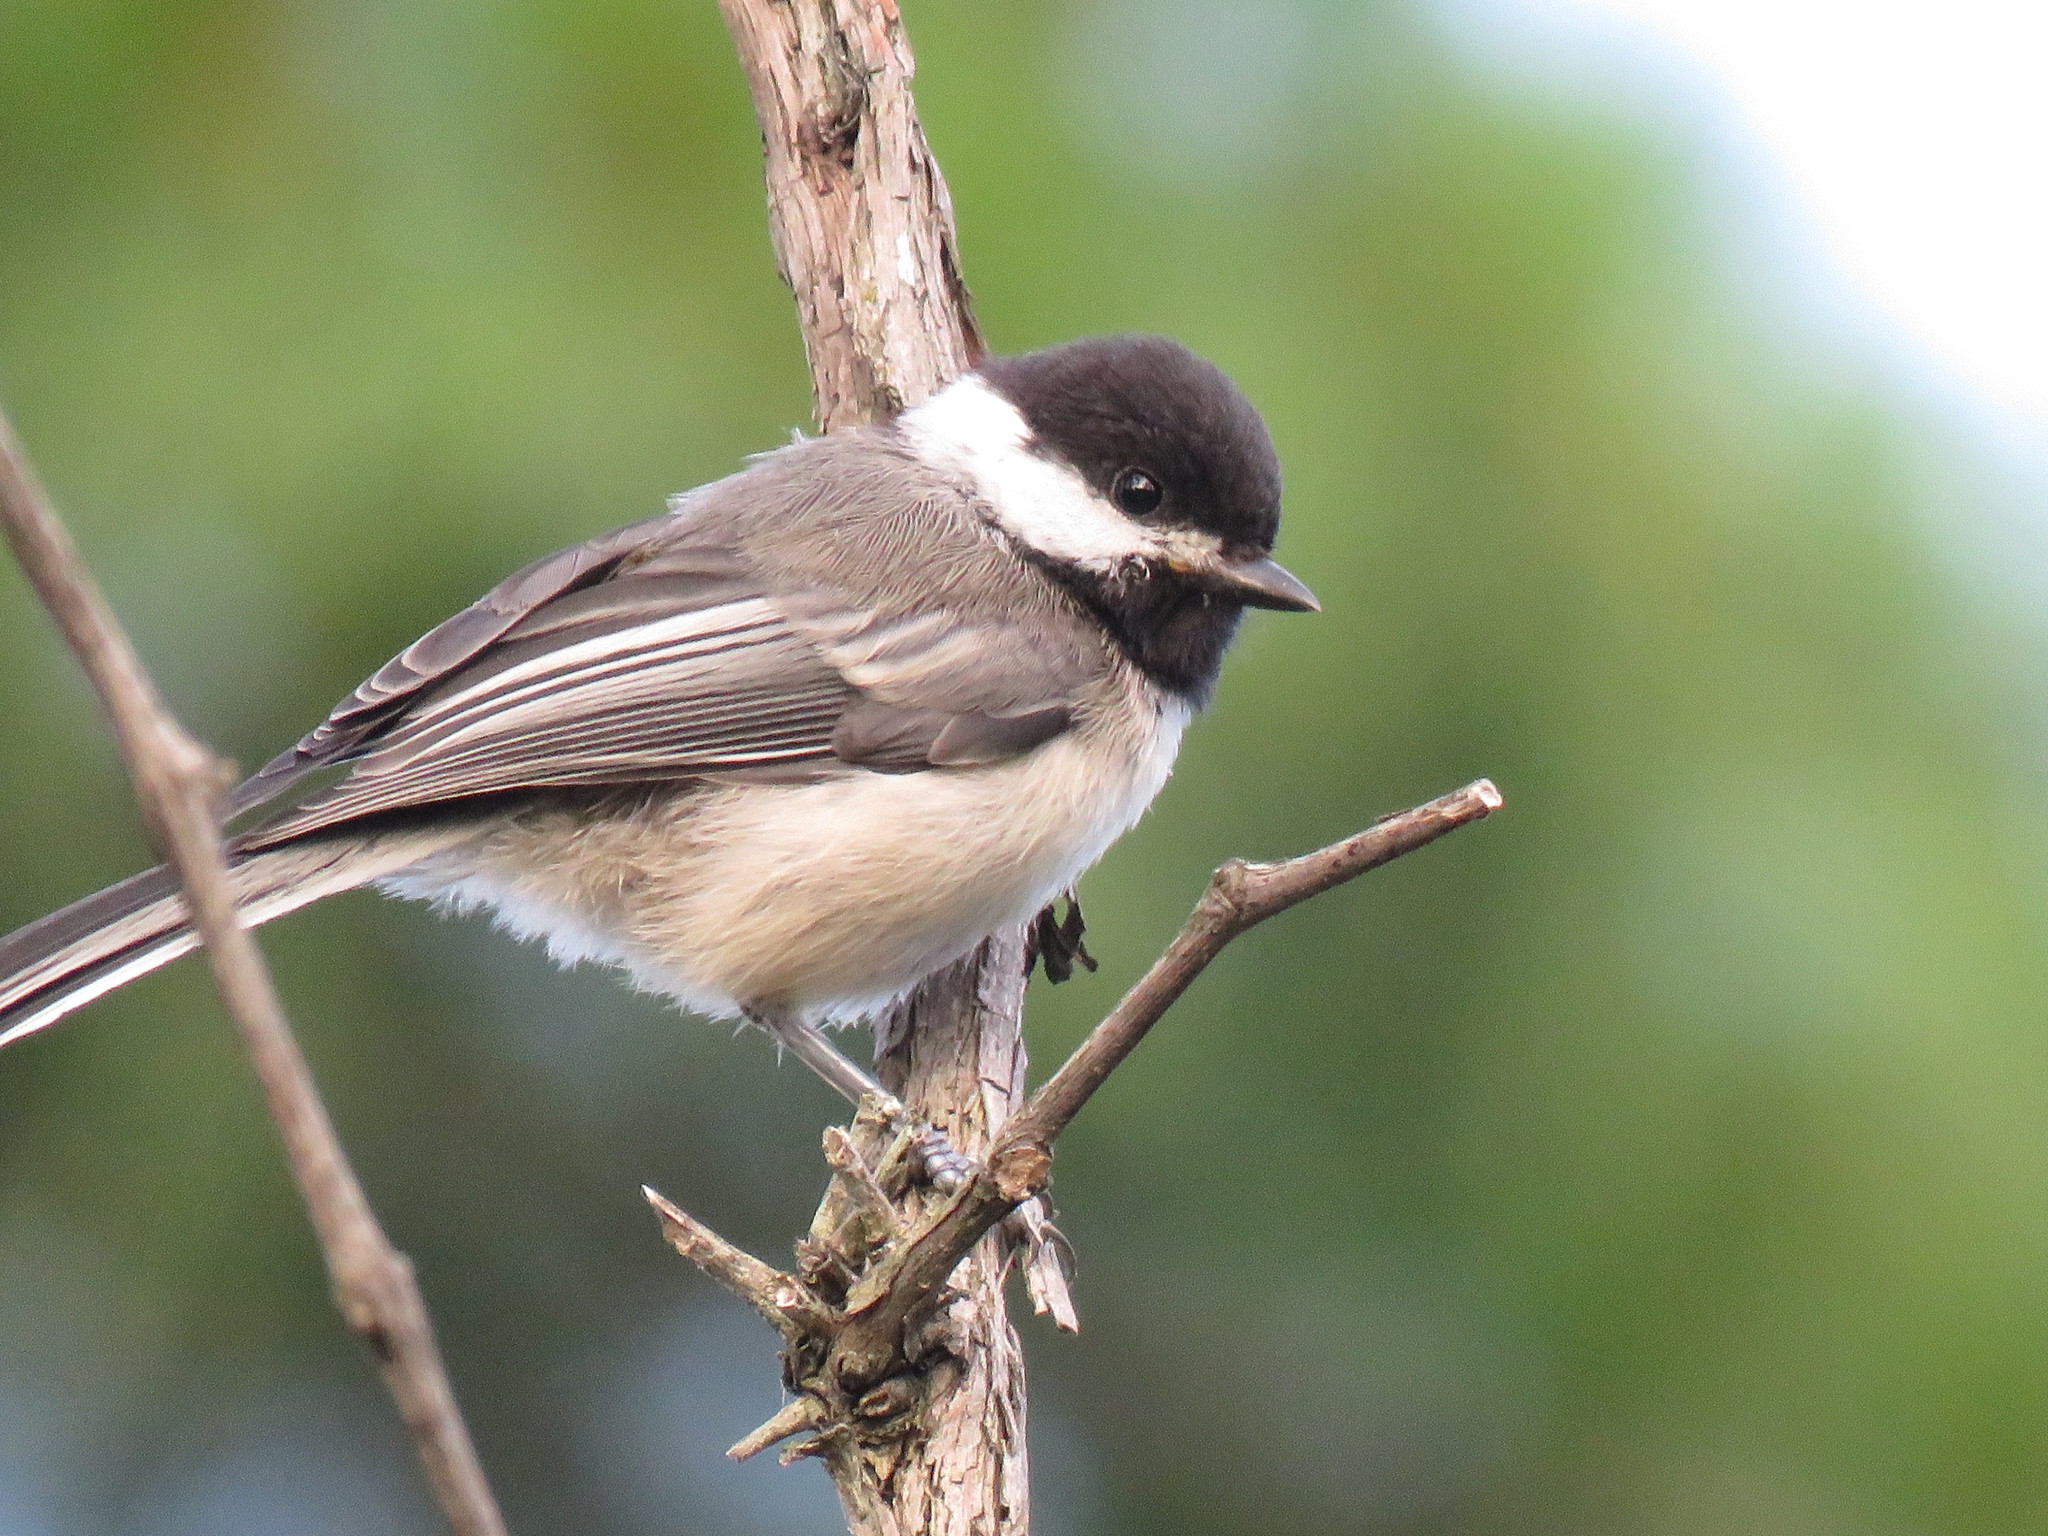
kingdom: Animalia
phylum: Chordata
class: Aves
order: Passeriformes
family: Paridae
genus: Poecile
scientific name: Poecile atricapillus
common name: Black-capped chickadee
